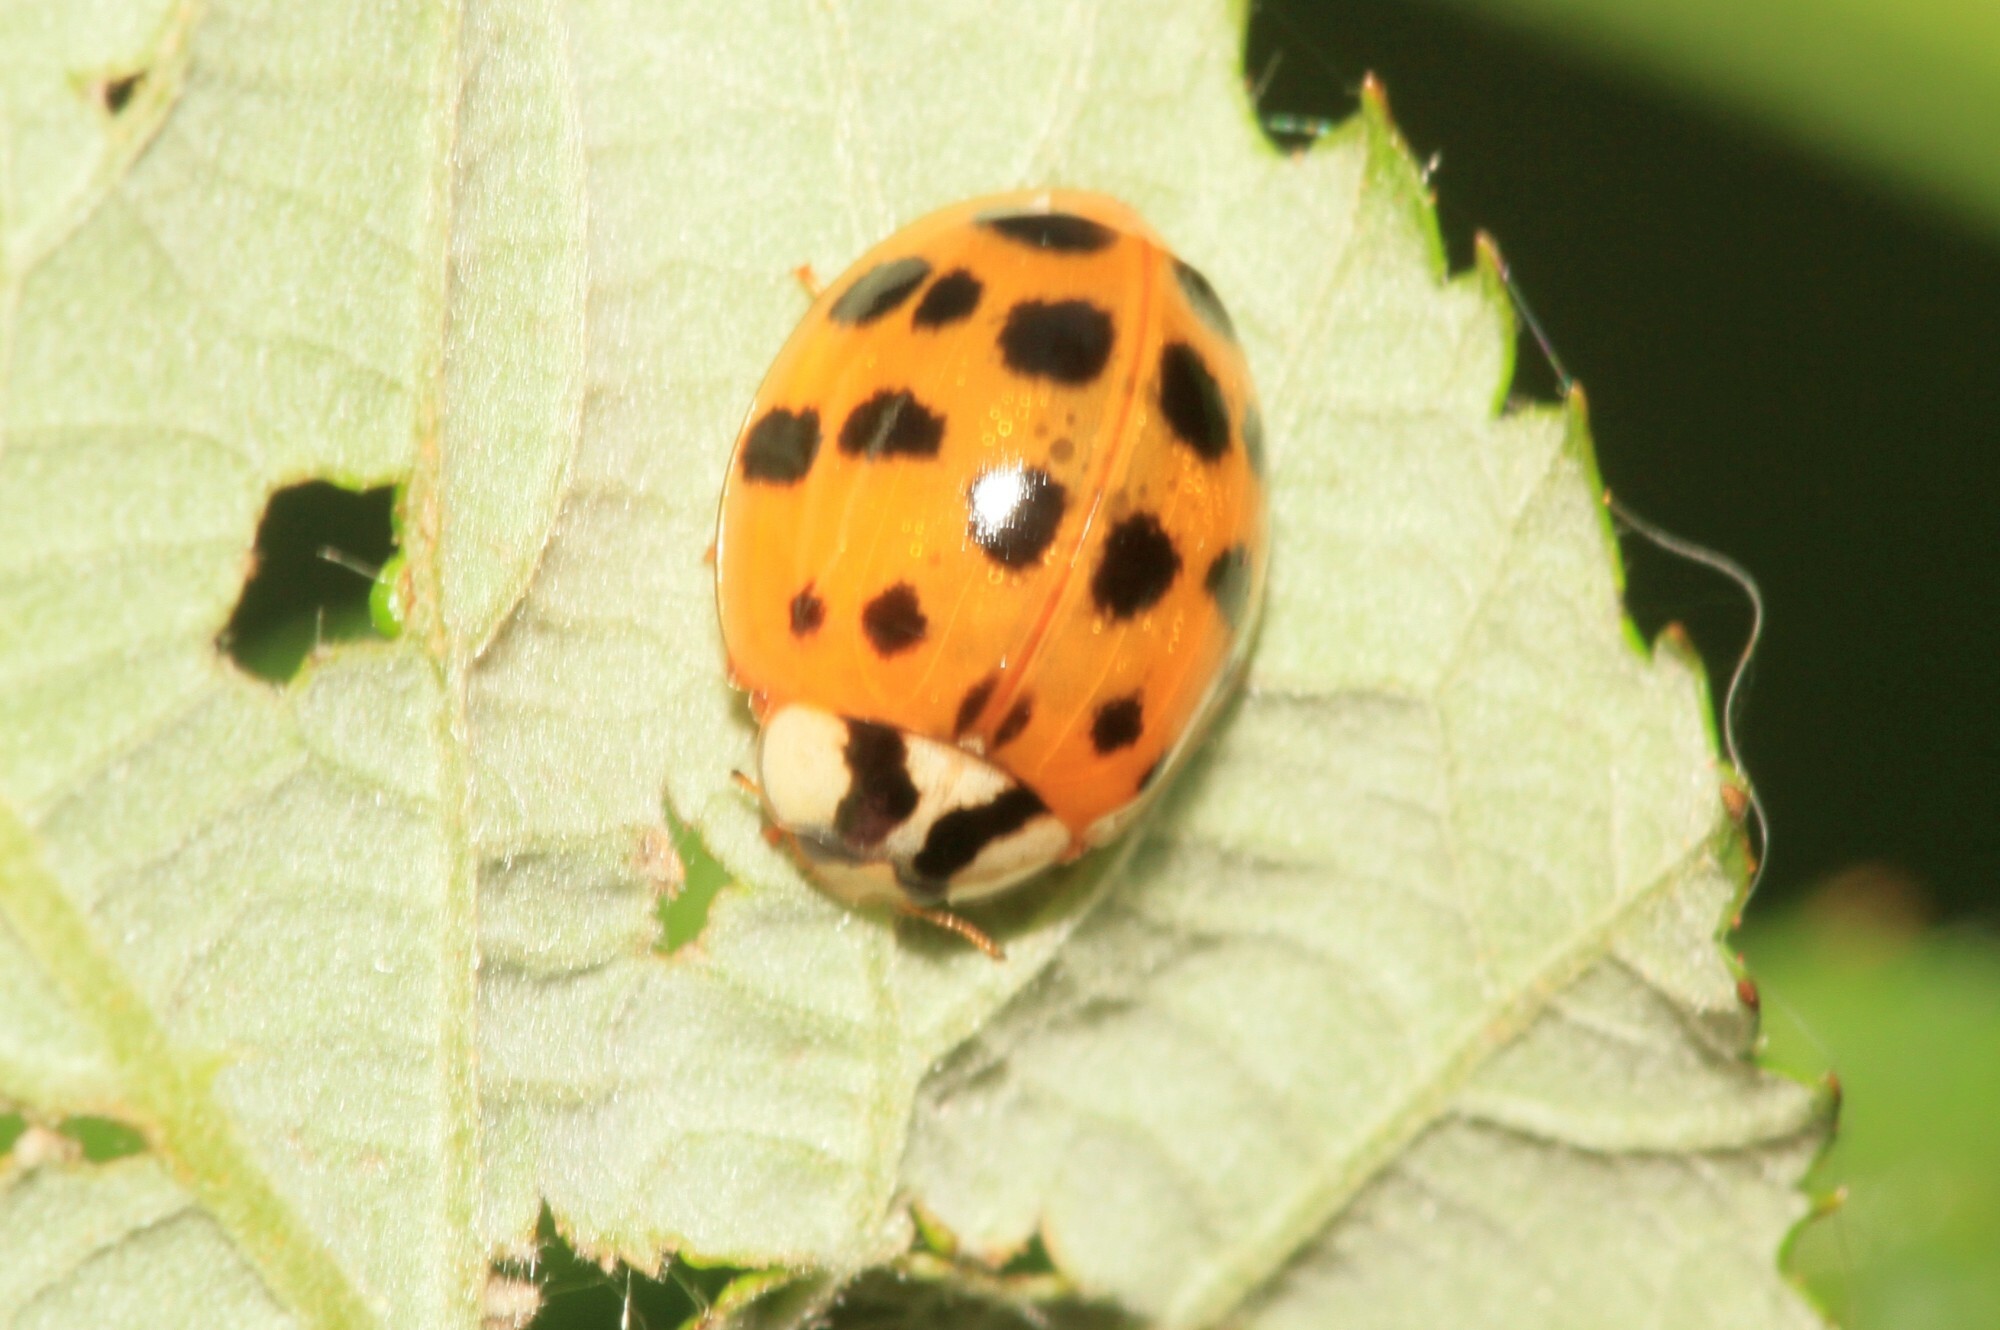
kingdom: Animalia
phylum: Arthropoda
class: Insecta
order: Coleoptera
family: Coccinellidae
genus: Harmonia
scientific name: Harmonia axyridis
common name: Harlequin ladybird
